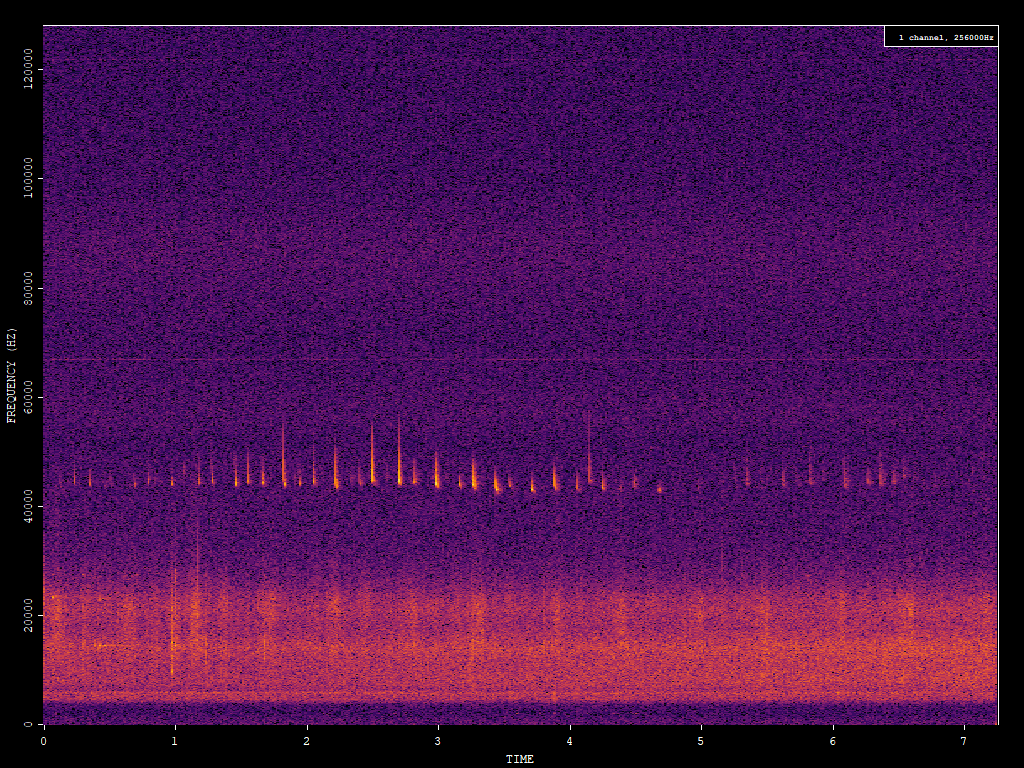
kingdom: Animalia
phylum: Chordata
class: Mammalia
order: Chiroptera
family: Vespertilionidae
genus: Pipistrellus
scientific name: Pipistrellus pipistrellus
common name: Common pipistrelle
